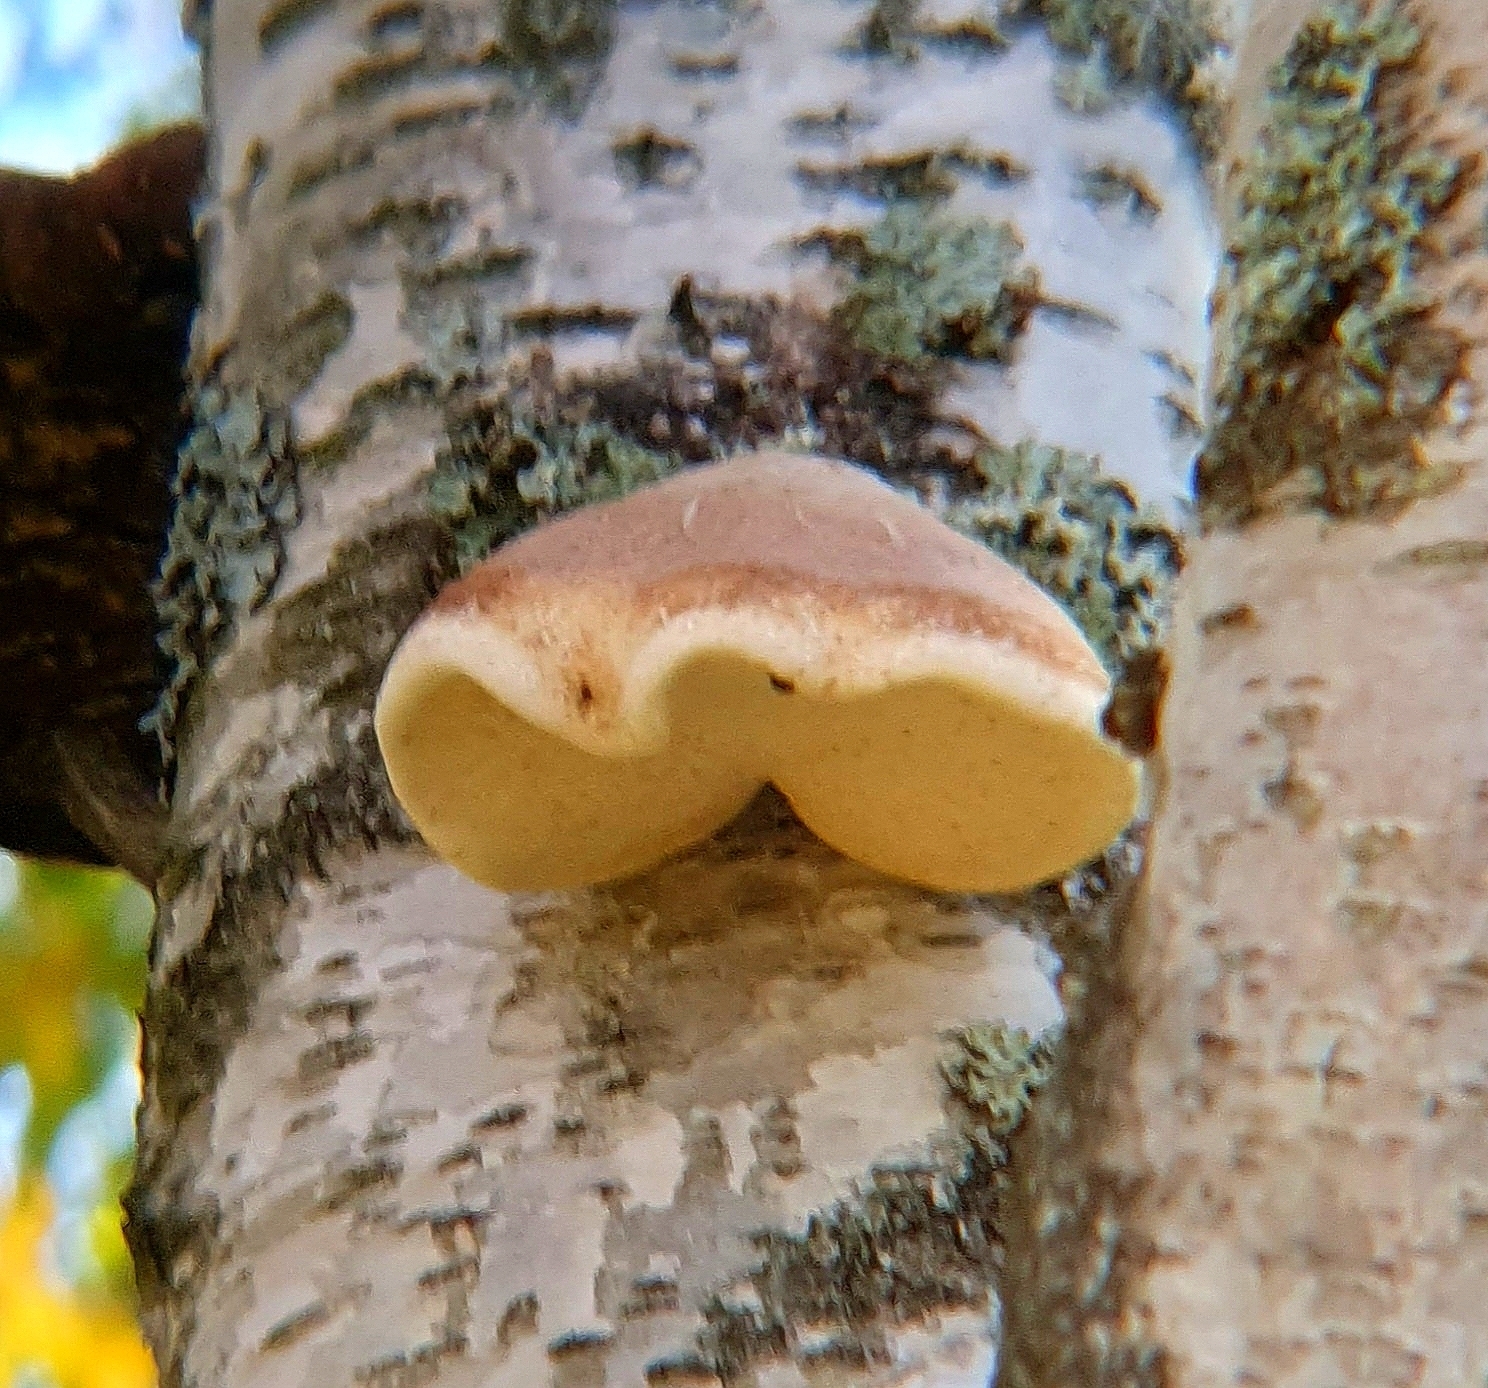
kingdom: Fungi
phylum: Basidiomycota
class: Agaricomycetes
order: Polyporales
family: Fomitopsidaceae
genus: Fomitopsis
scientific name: Fomitopsis betulina
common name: Birch polypore
